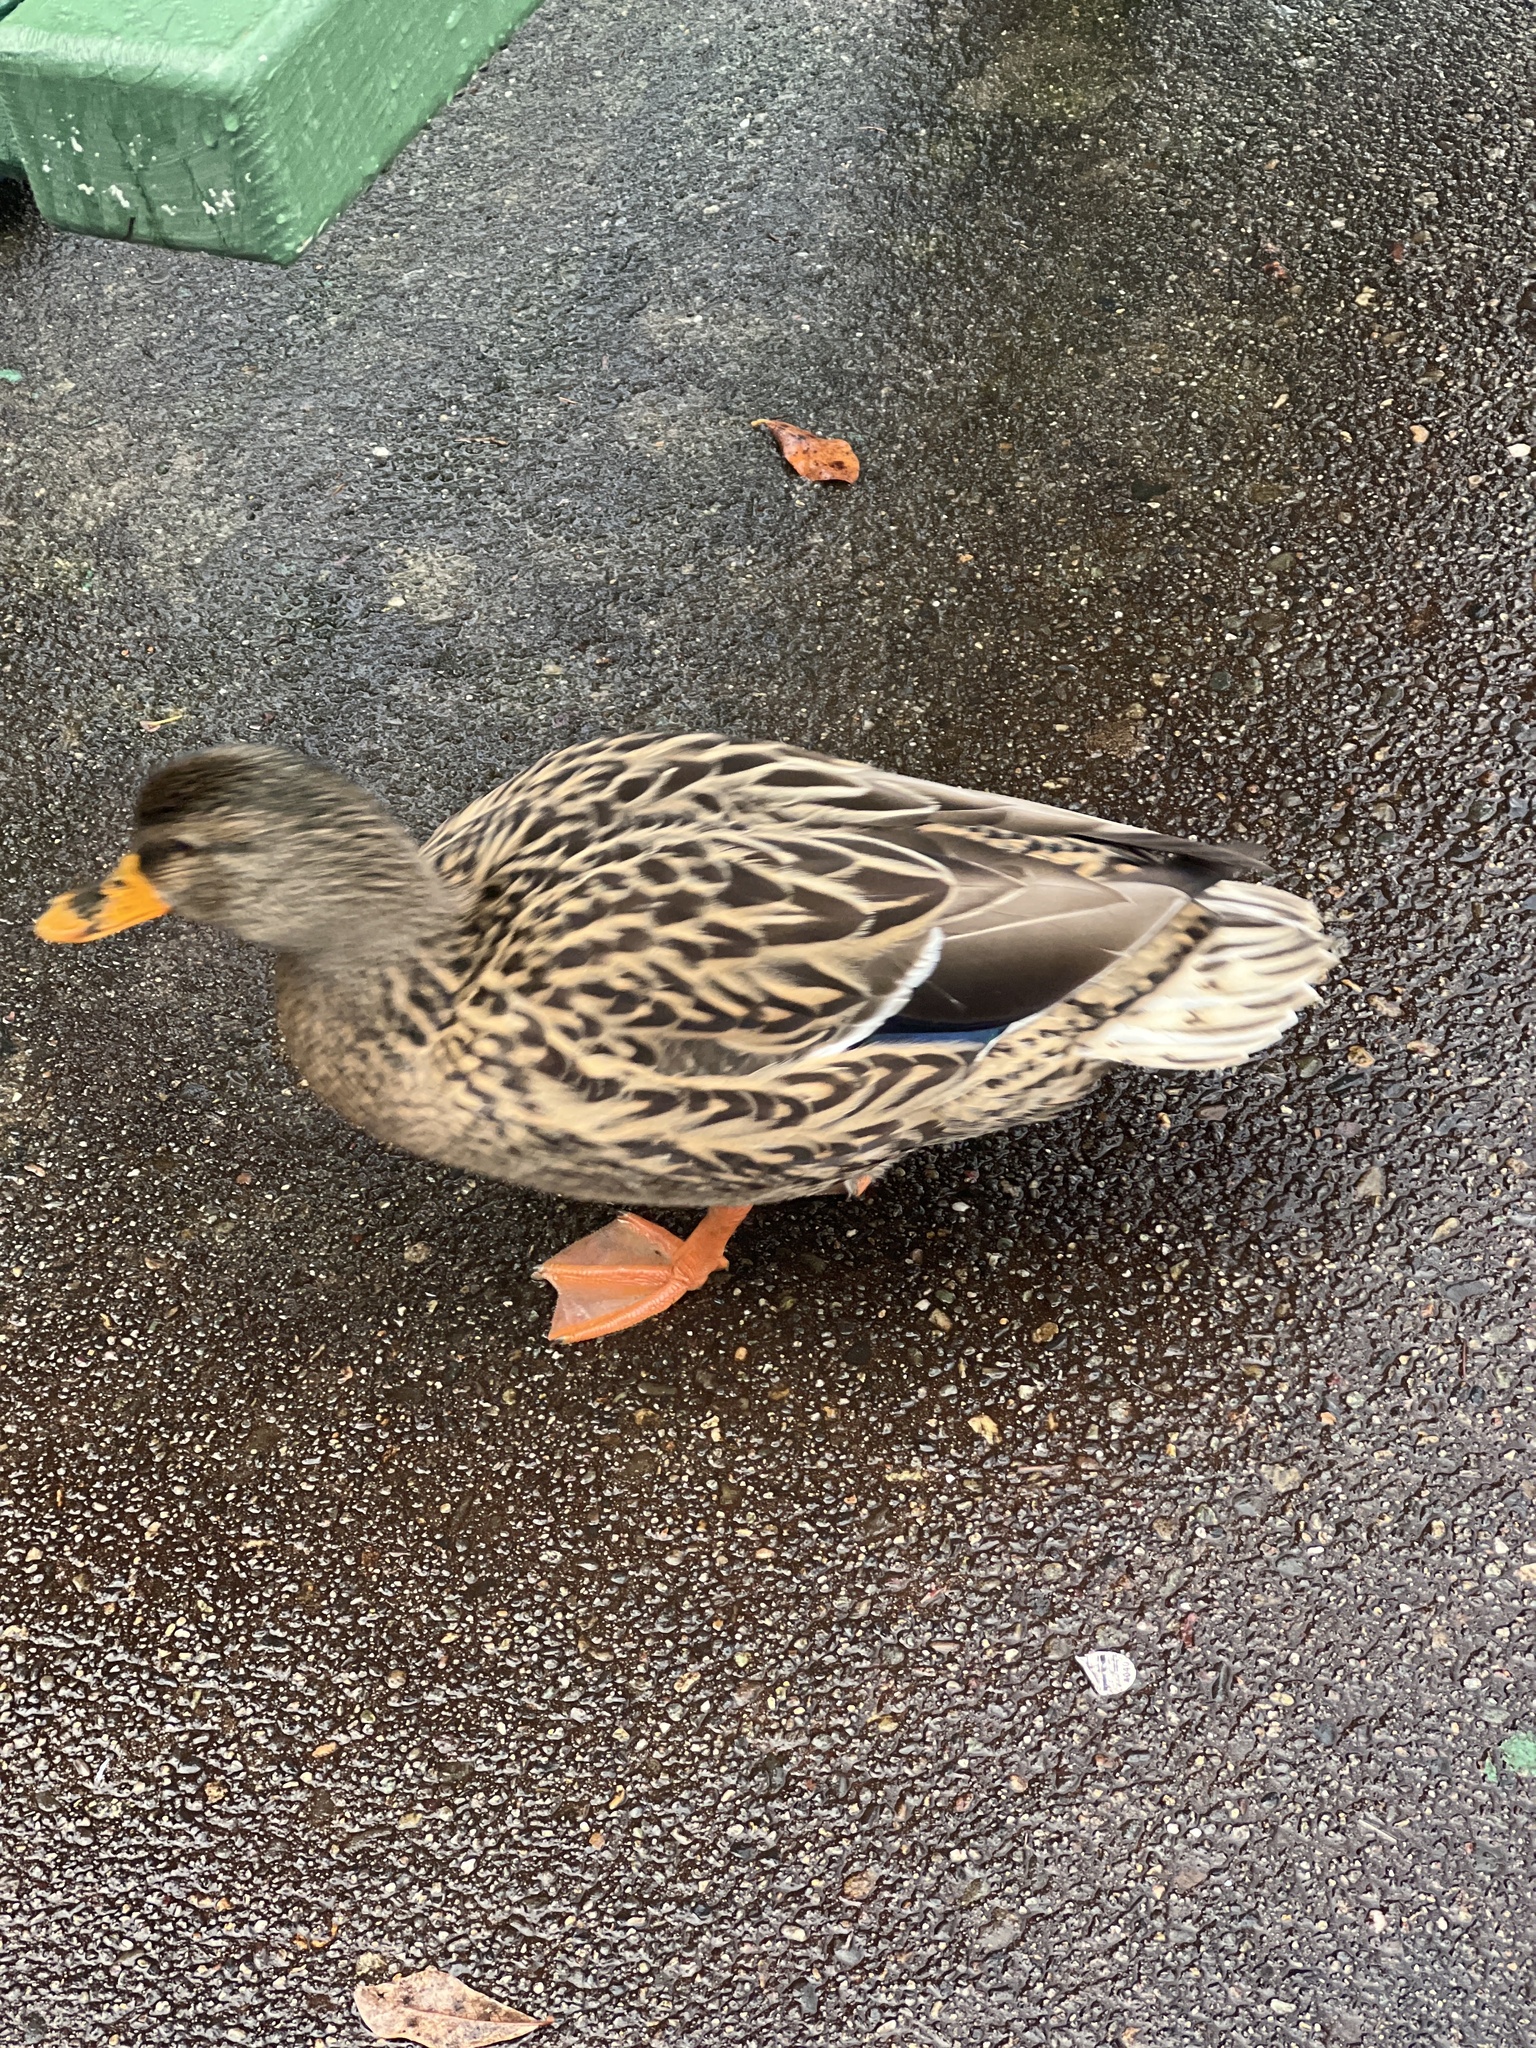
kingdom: Animalia
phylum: Chordata
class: Aves
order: Anseriformes
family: Anatidae
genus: Anas
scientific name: Anas platyrhynchos
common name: Mallard
